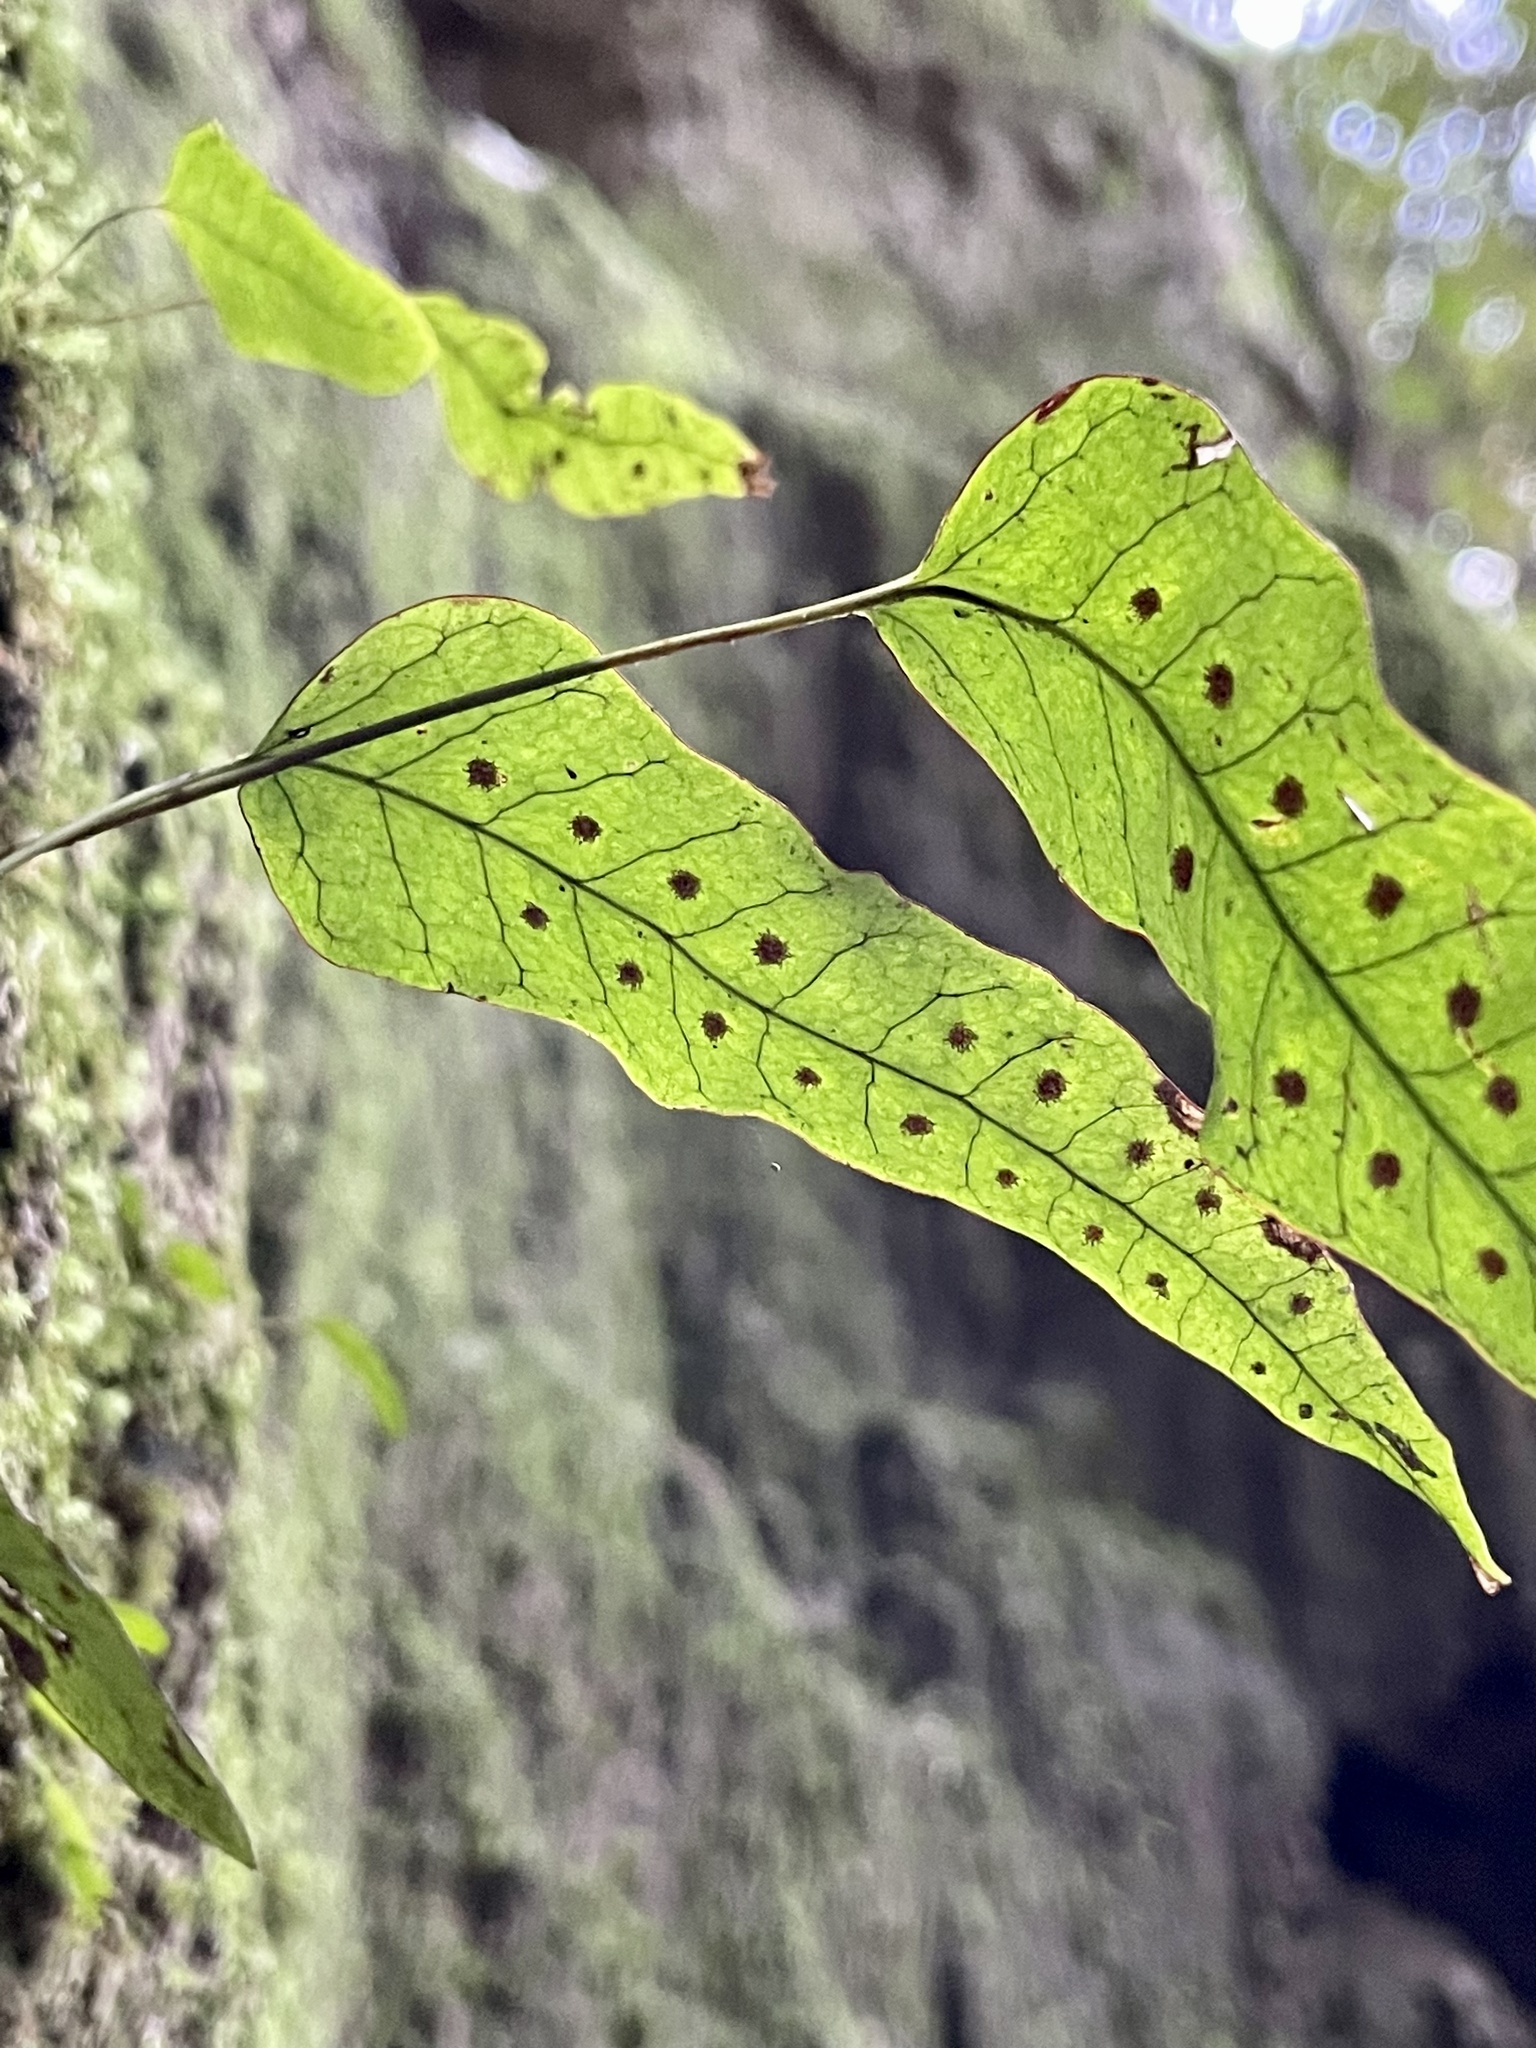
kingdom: Plantae
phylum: Tracheophyta
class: Polypodiopsida
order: Polypodiales
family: Polypodiaceae
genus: Selliguea
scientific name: Selliguea hastata
